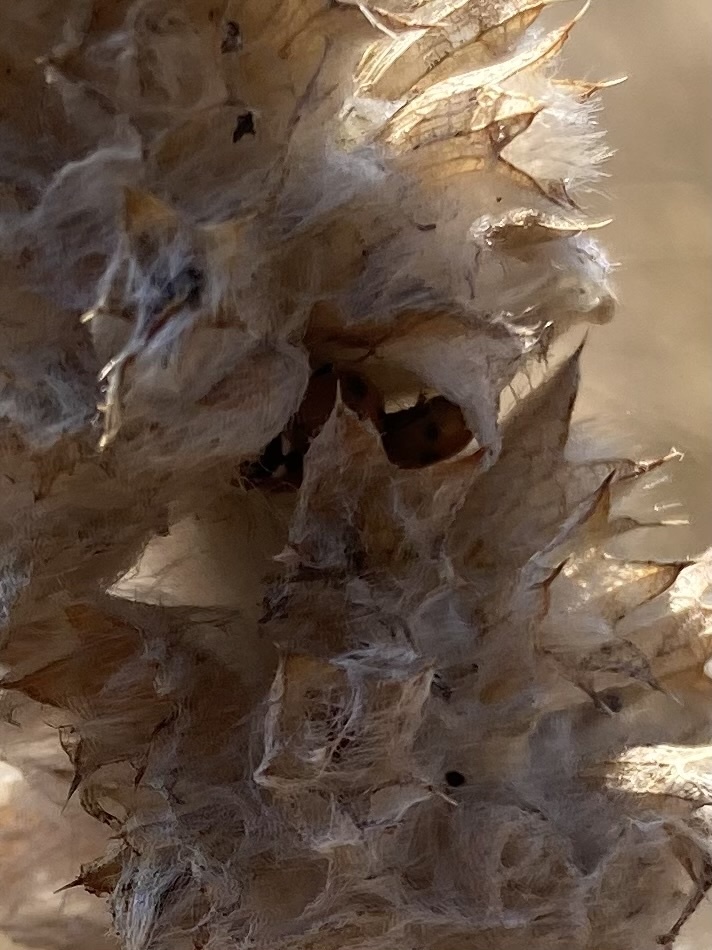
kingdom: Animalia
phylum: Arthropoda
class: Insecta
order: Coleoptera
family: Coccinellidae
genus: Hippodamia
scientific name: Hippodamia variegata
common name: Ladybird beetle
